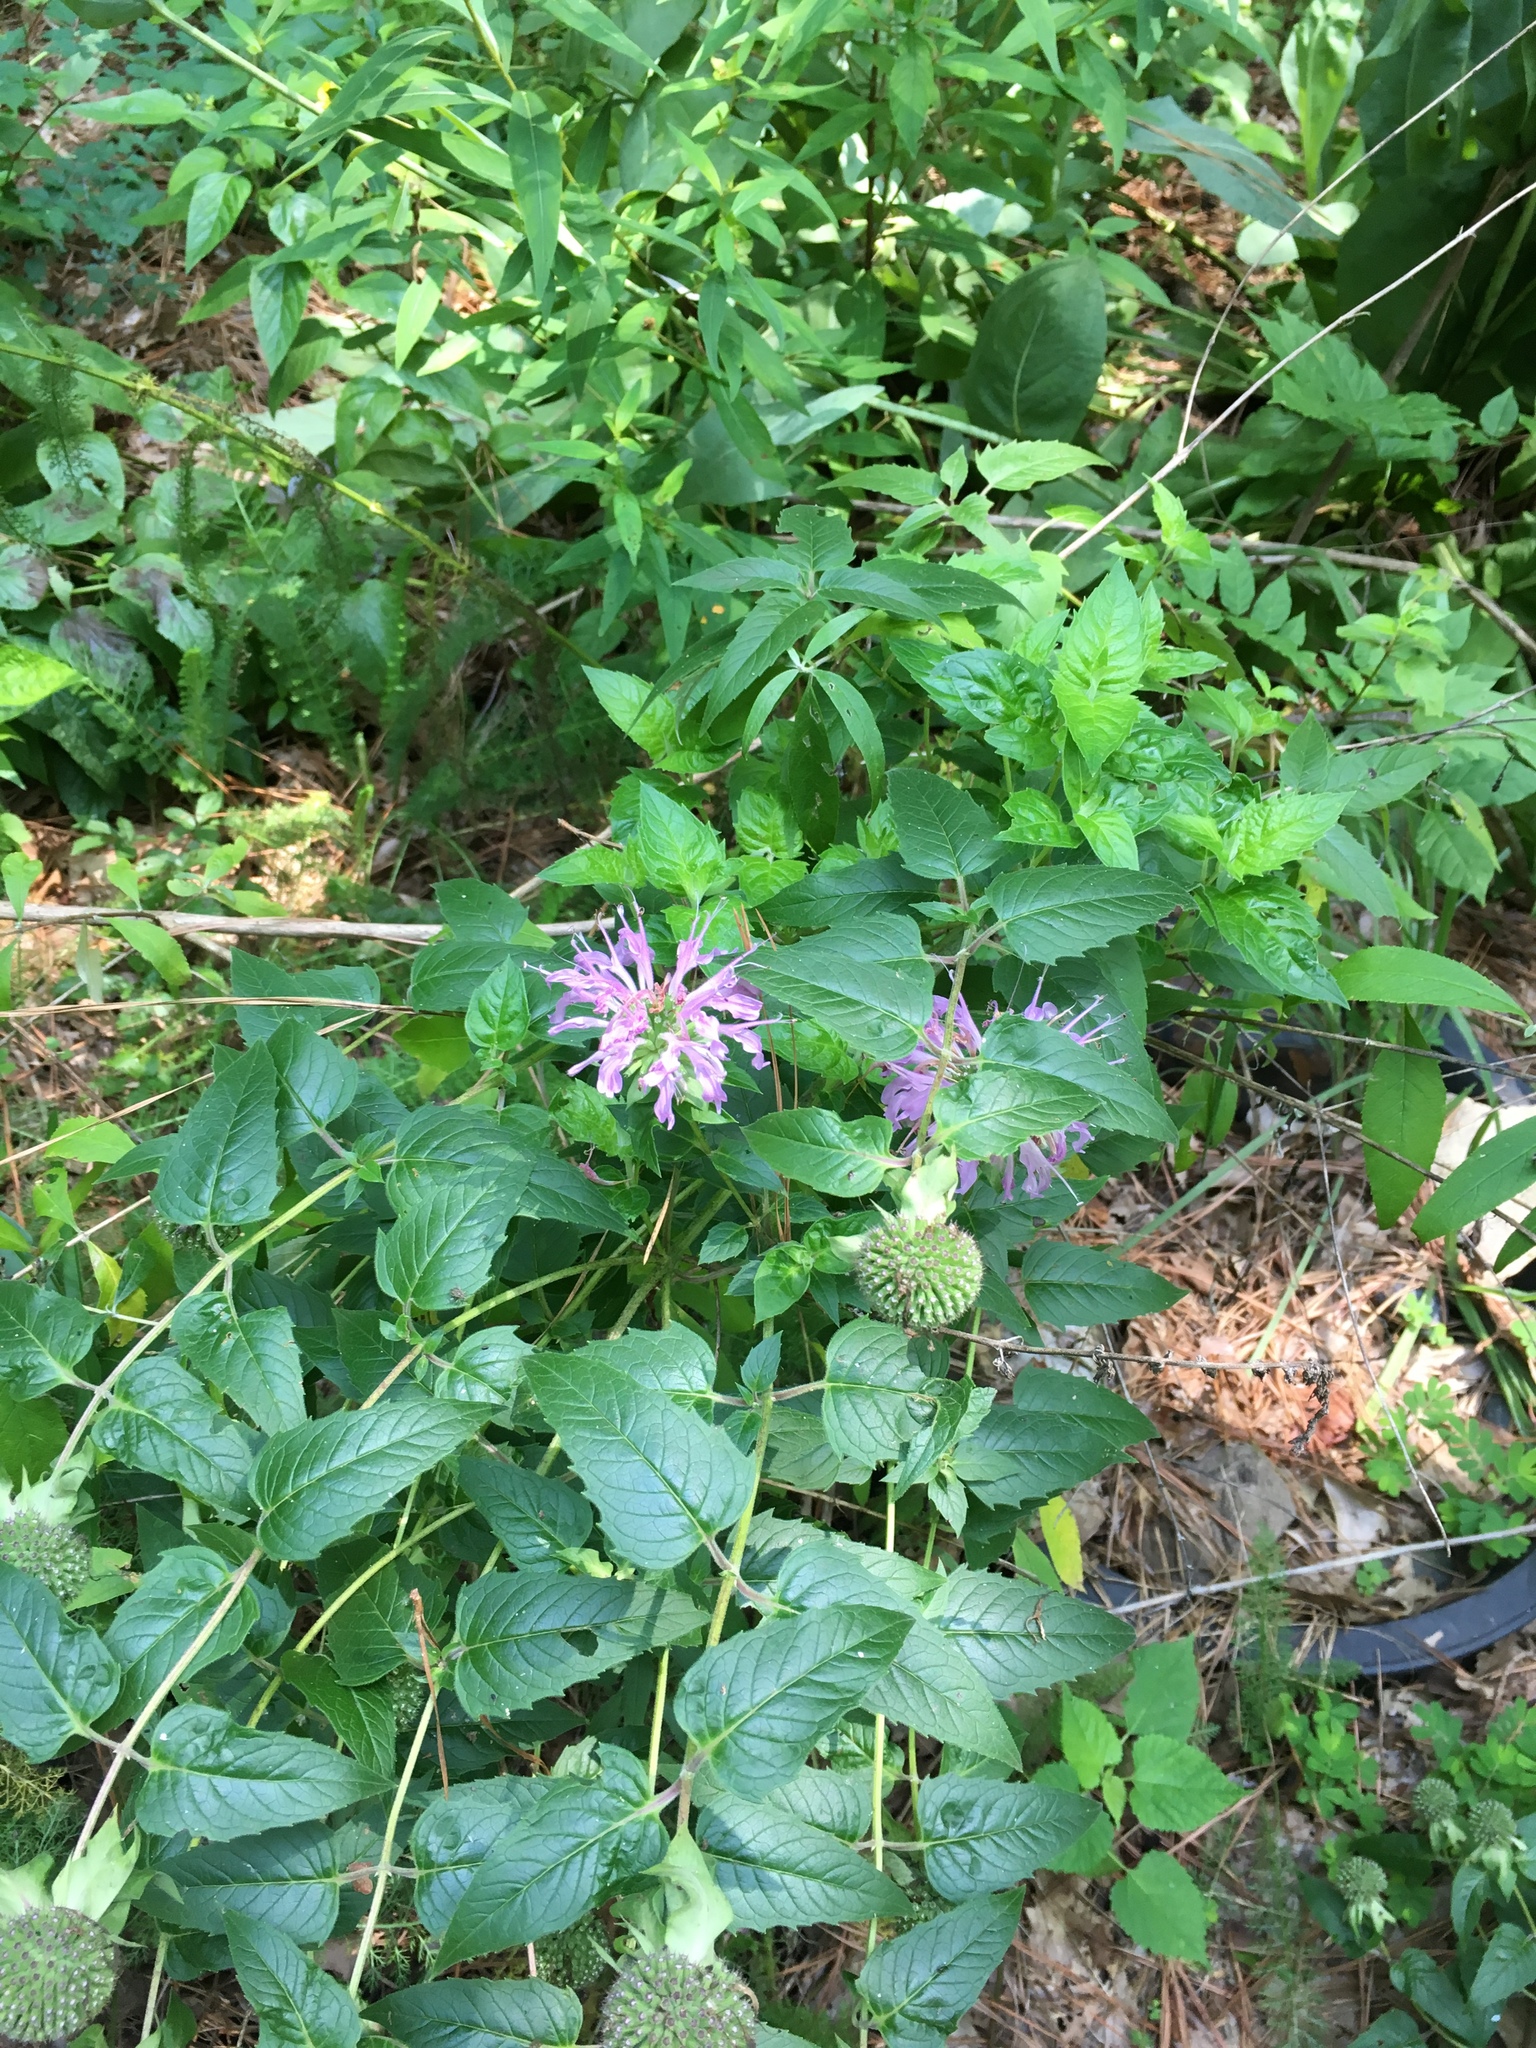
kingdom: Plantae
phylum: Tracheophyta
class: Magnoliopsida
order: Lamiales
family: Lamiaceae
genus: Monarda
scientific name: Monarda fistulosa
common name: Purple beebalm
